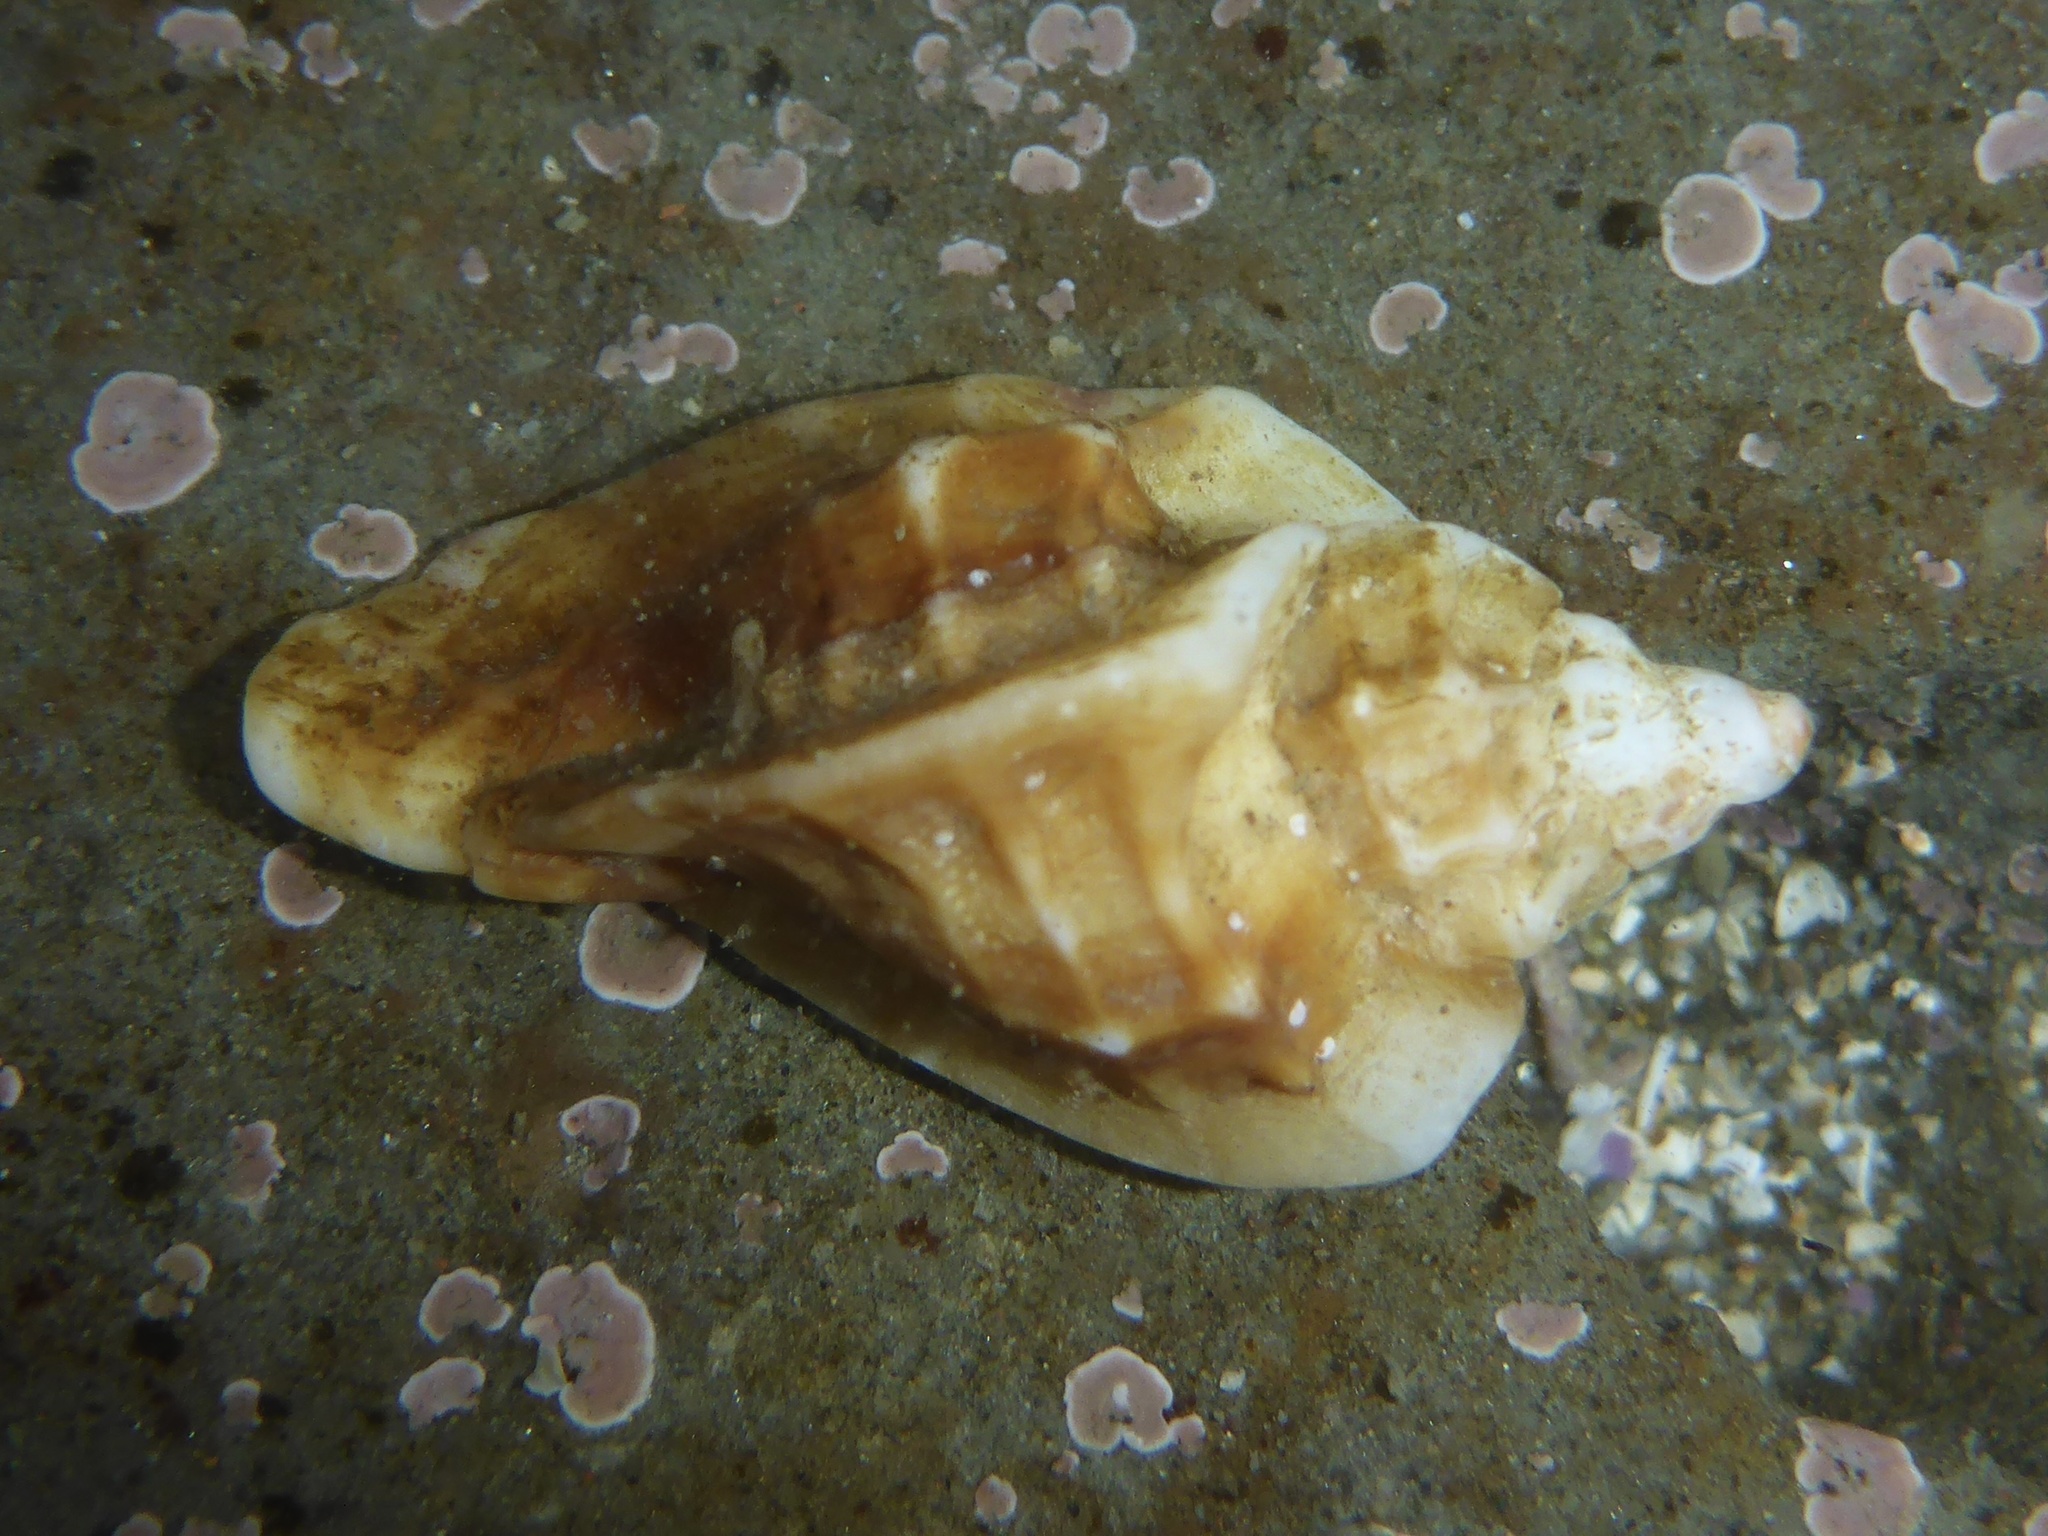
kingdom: Animalia
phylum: Mollusca
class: Gastropoda
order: Neogastropoda
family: Muricidae
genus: Ceratostoma
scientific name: Ceratostoma foliatum
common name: Foliate thorn purpura
